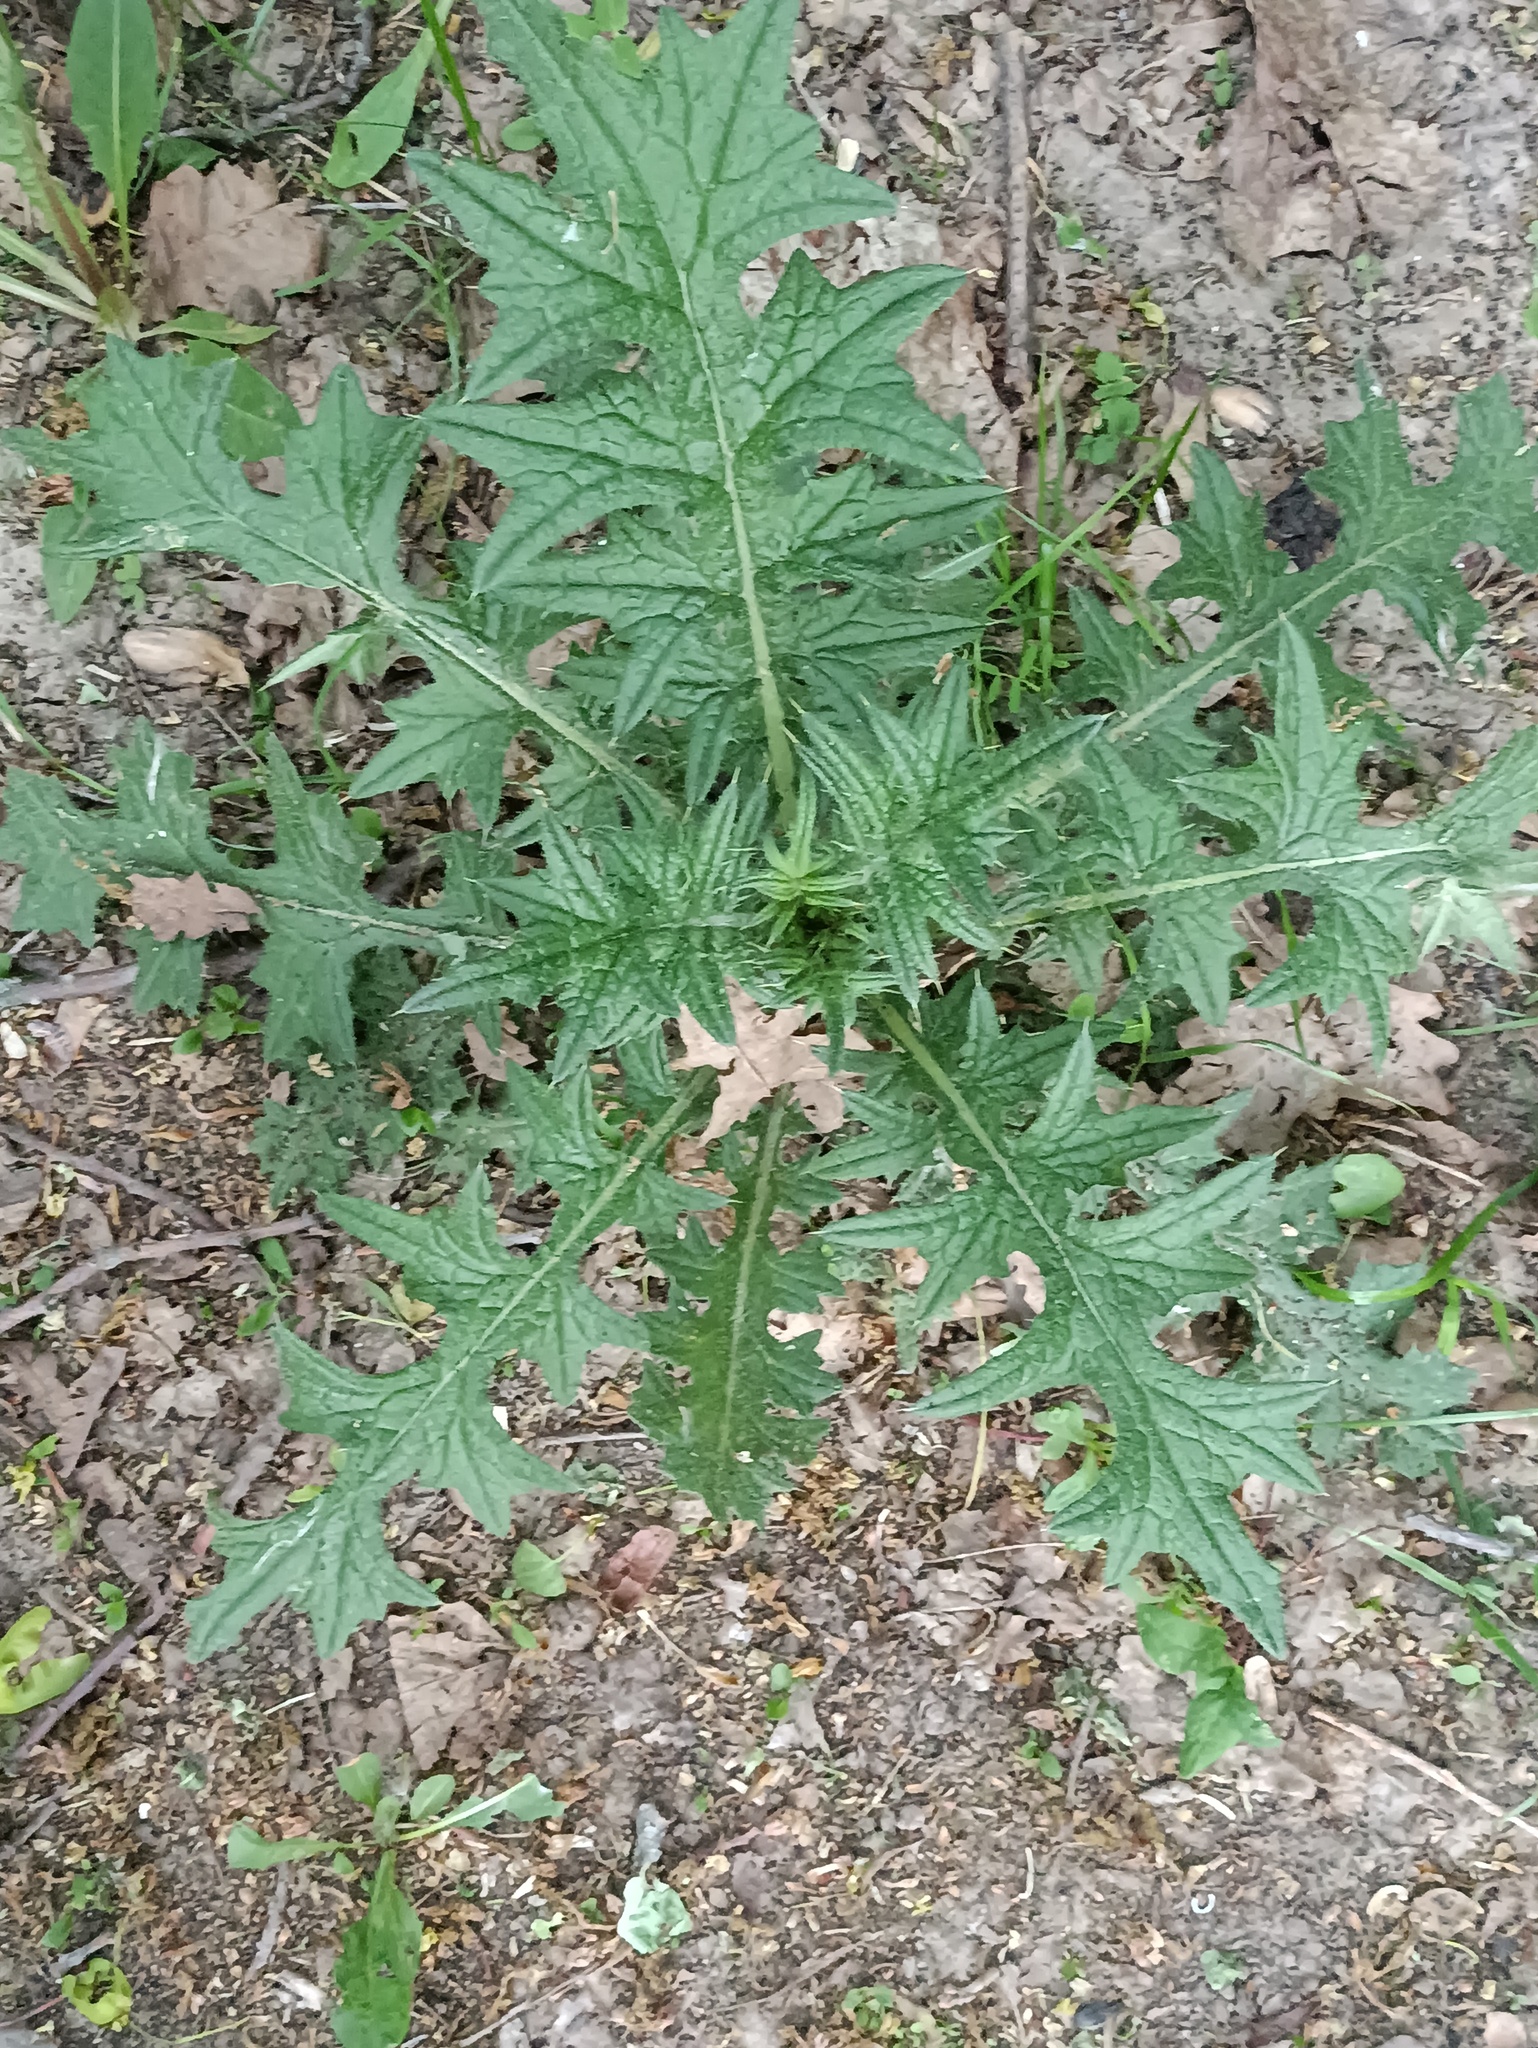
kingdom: Plantae
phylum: Tracheophyta
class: Magnoliopsida
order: Asterales
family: Asteraceae
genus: Cirsium
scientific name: Cirsium vulgare
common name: Bull thistle
